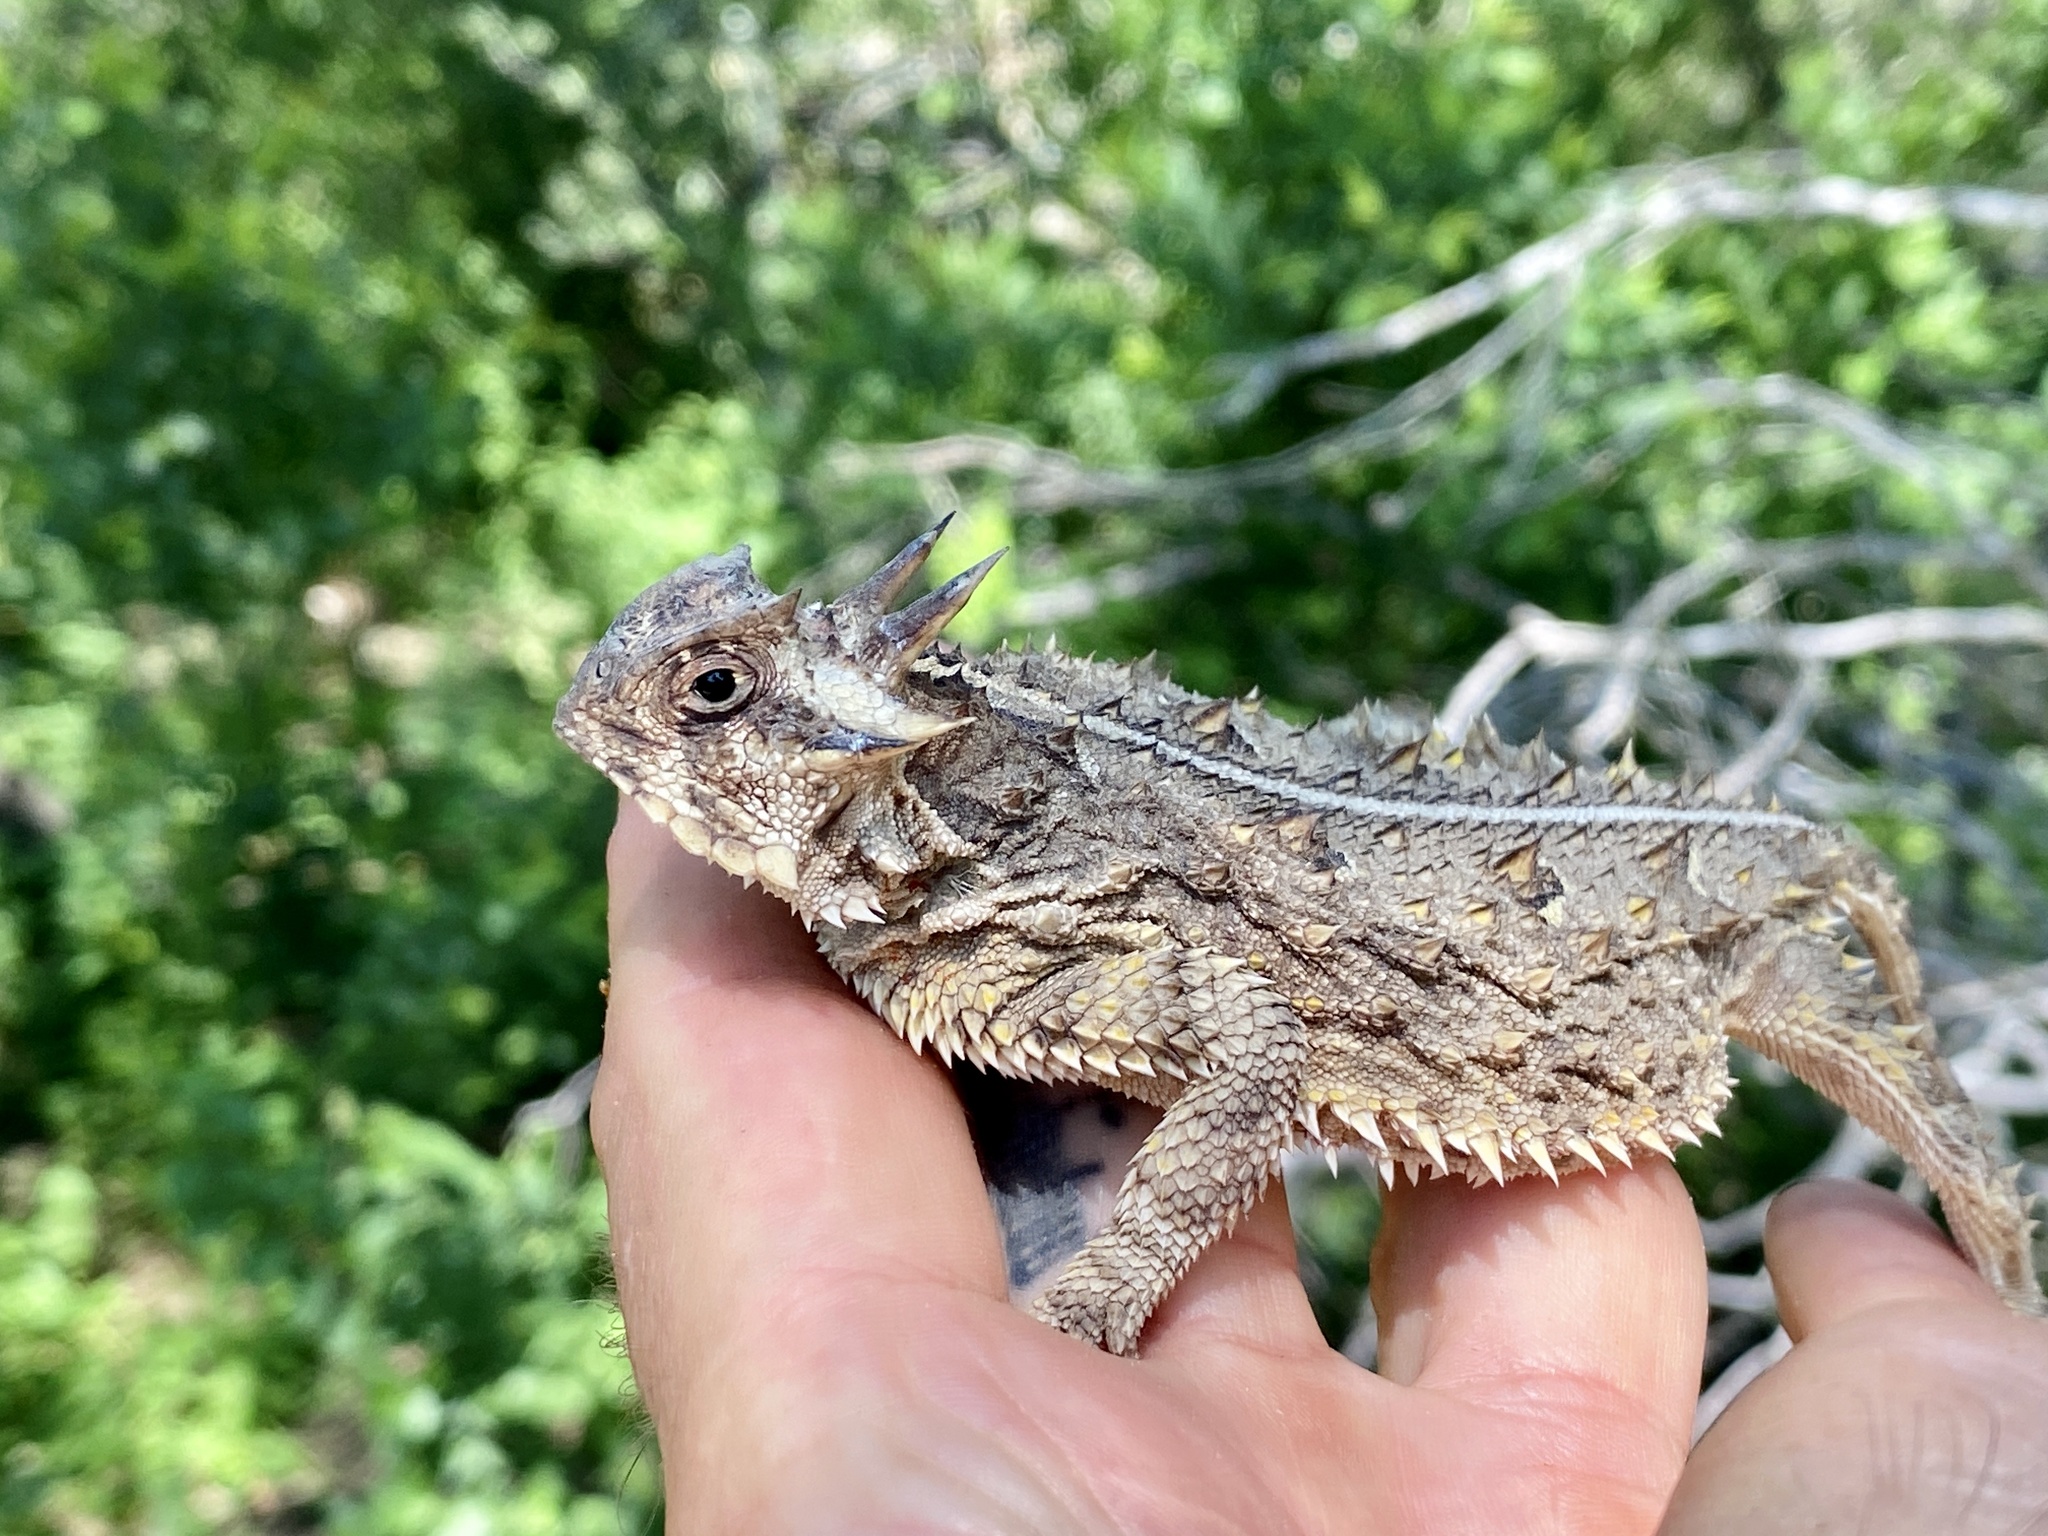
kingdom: Animalia
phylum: Chordata
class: Squamata
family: Phrynosomatidae
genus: Phrynosoma
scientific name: Phrynosoma cornutum
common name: Texas horned lizard
